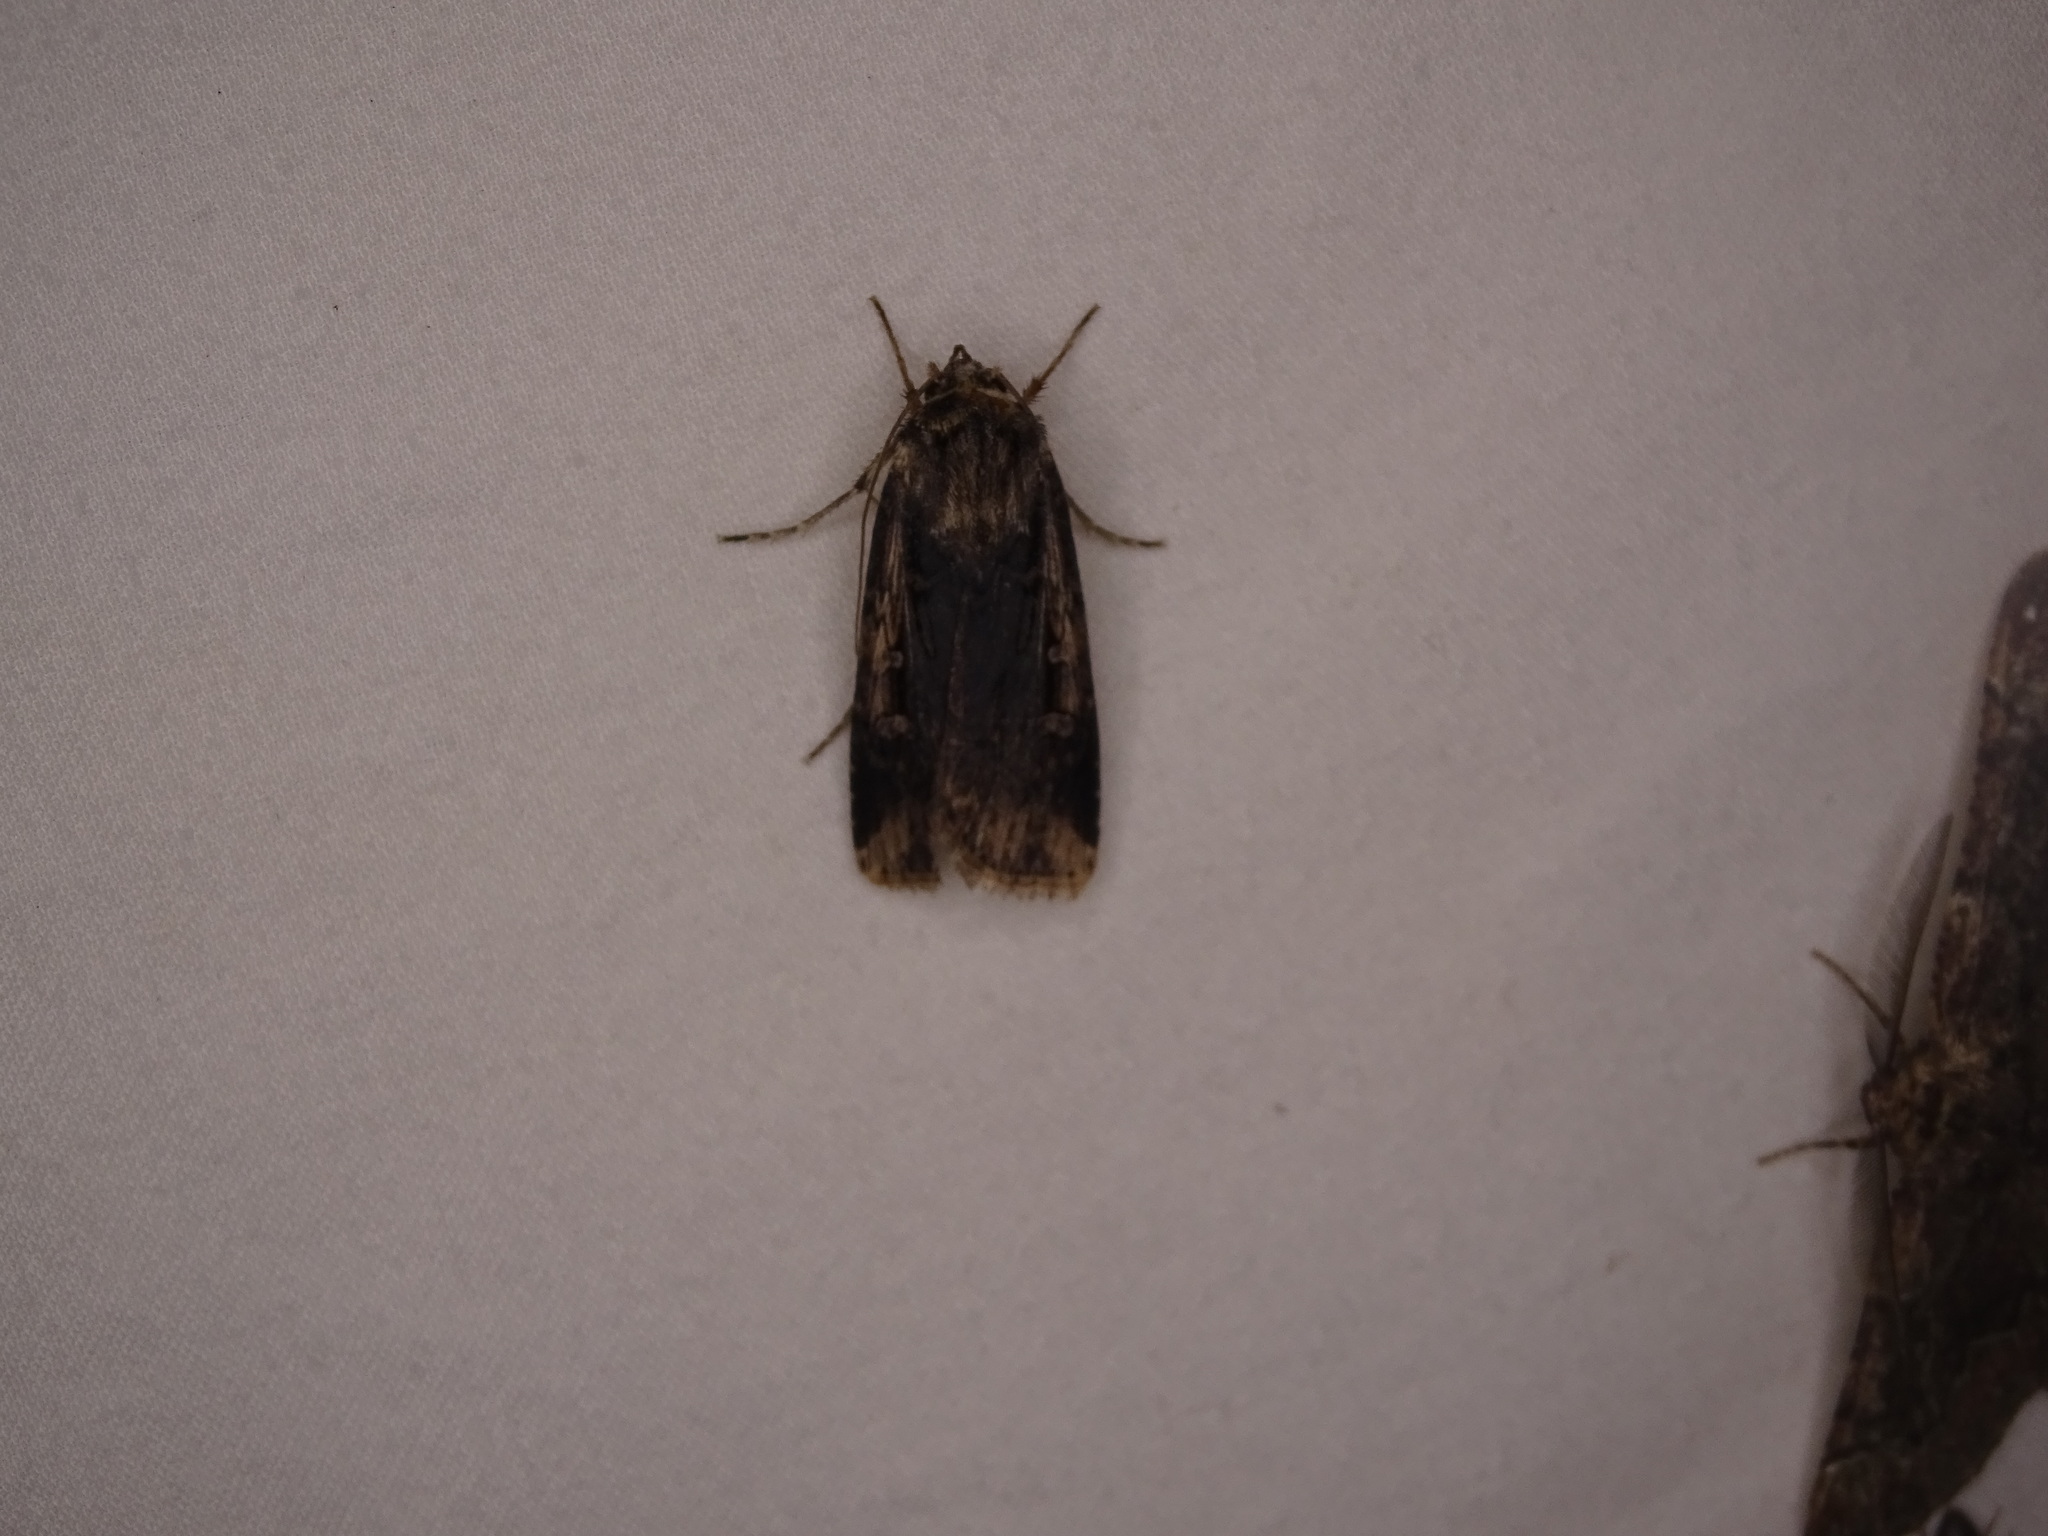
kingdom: Animalia
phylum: Arthropoda
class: Insecta
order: Lepidoptera
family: Noctuidae
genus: Feltia
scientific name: Feltia subterranea
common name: Granulate cutworm
